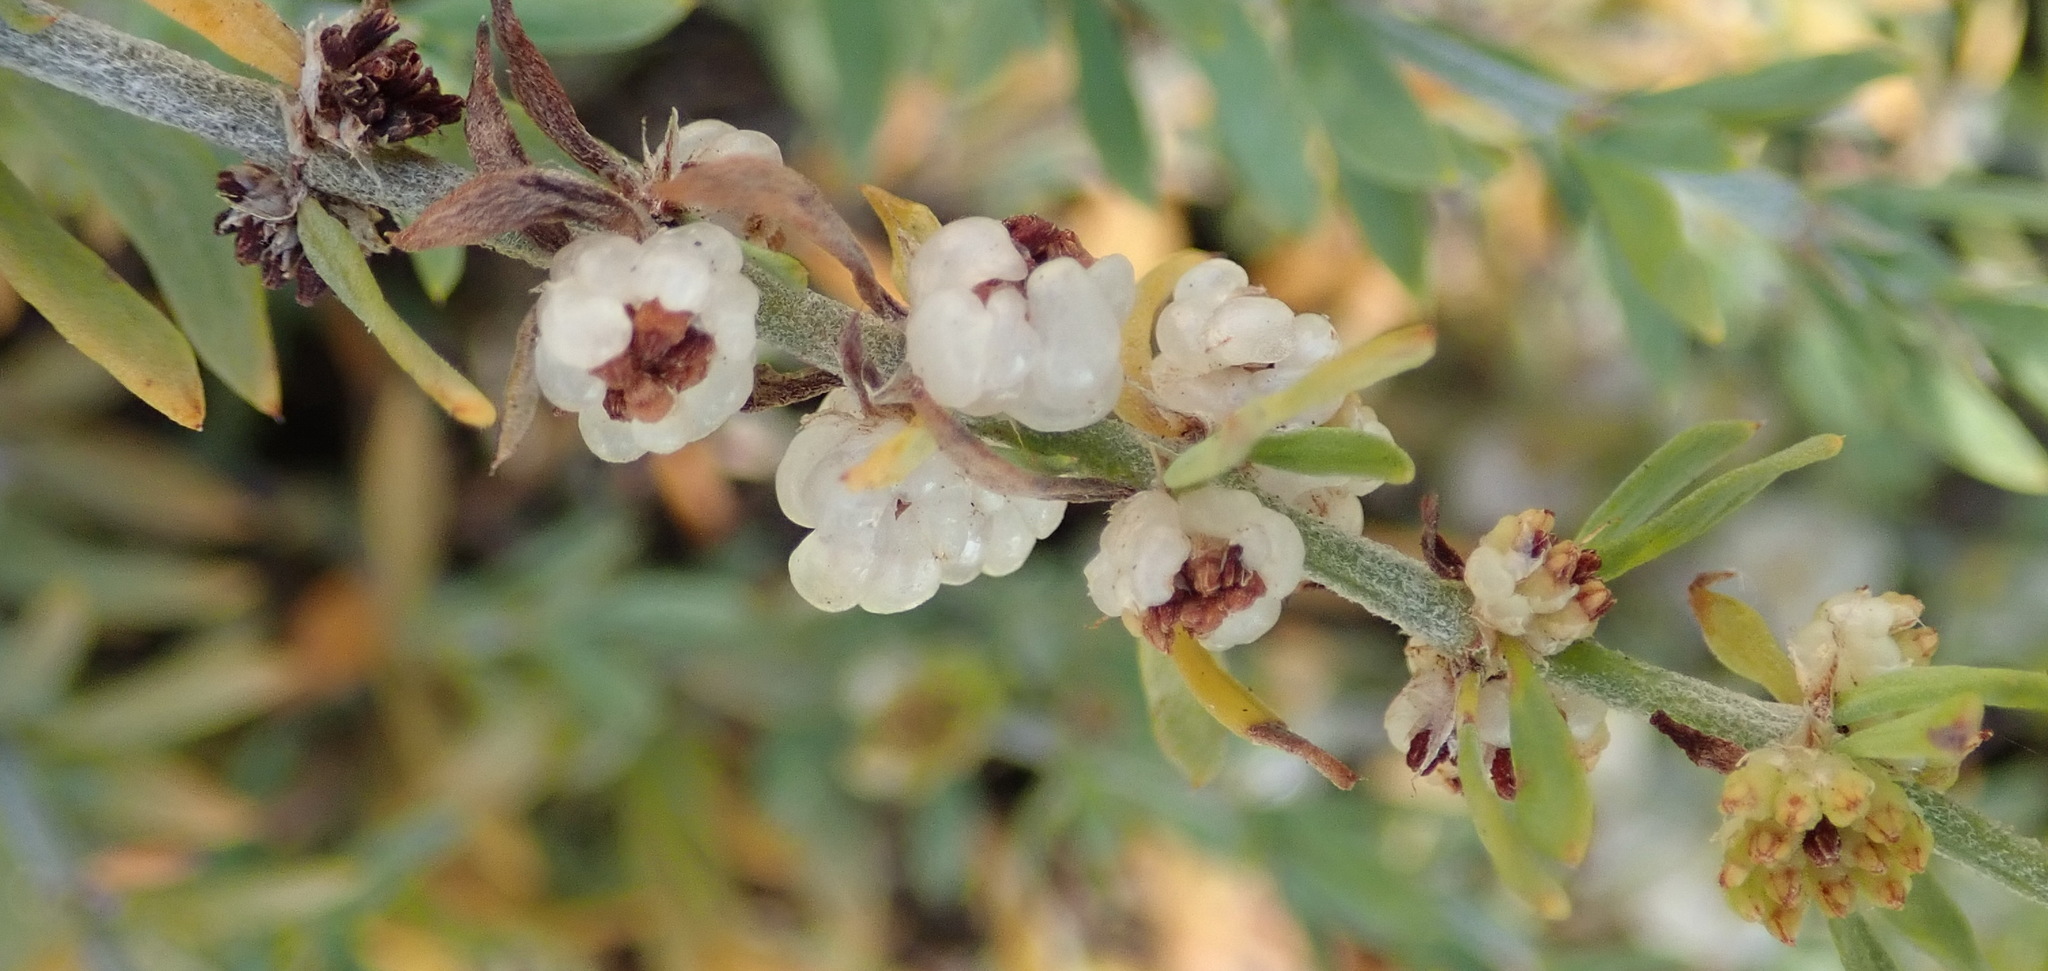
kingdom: Plantae
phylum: Tracheophyta
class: Magnoliopsida
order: Caryophyllales
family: Caryophyllaceae
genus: Pollichia
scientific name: Pollichia campestris
